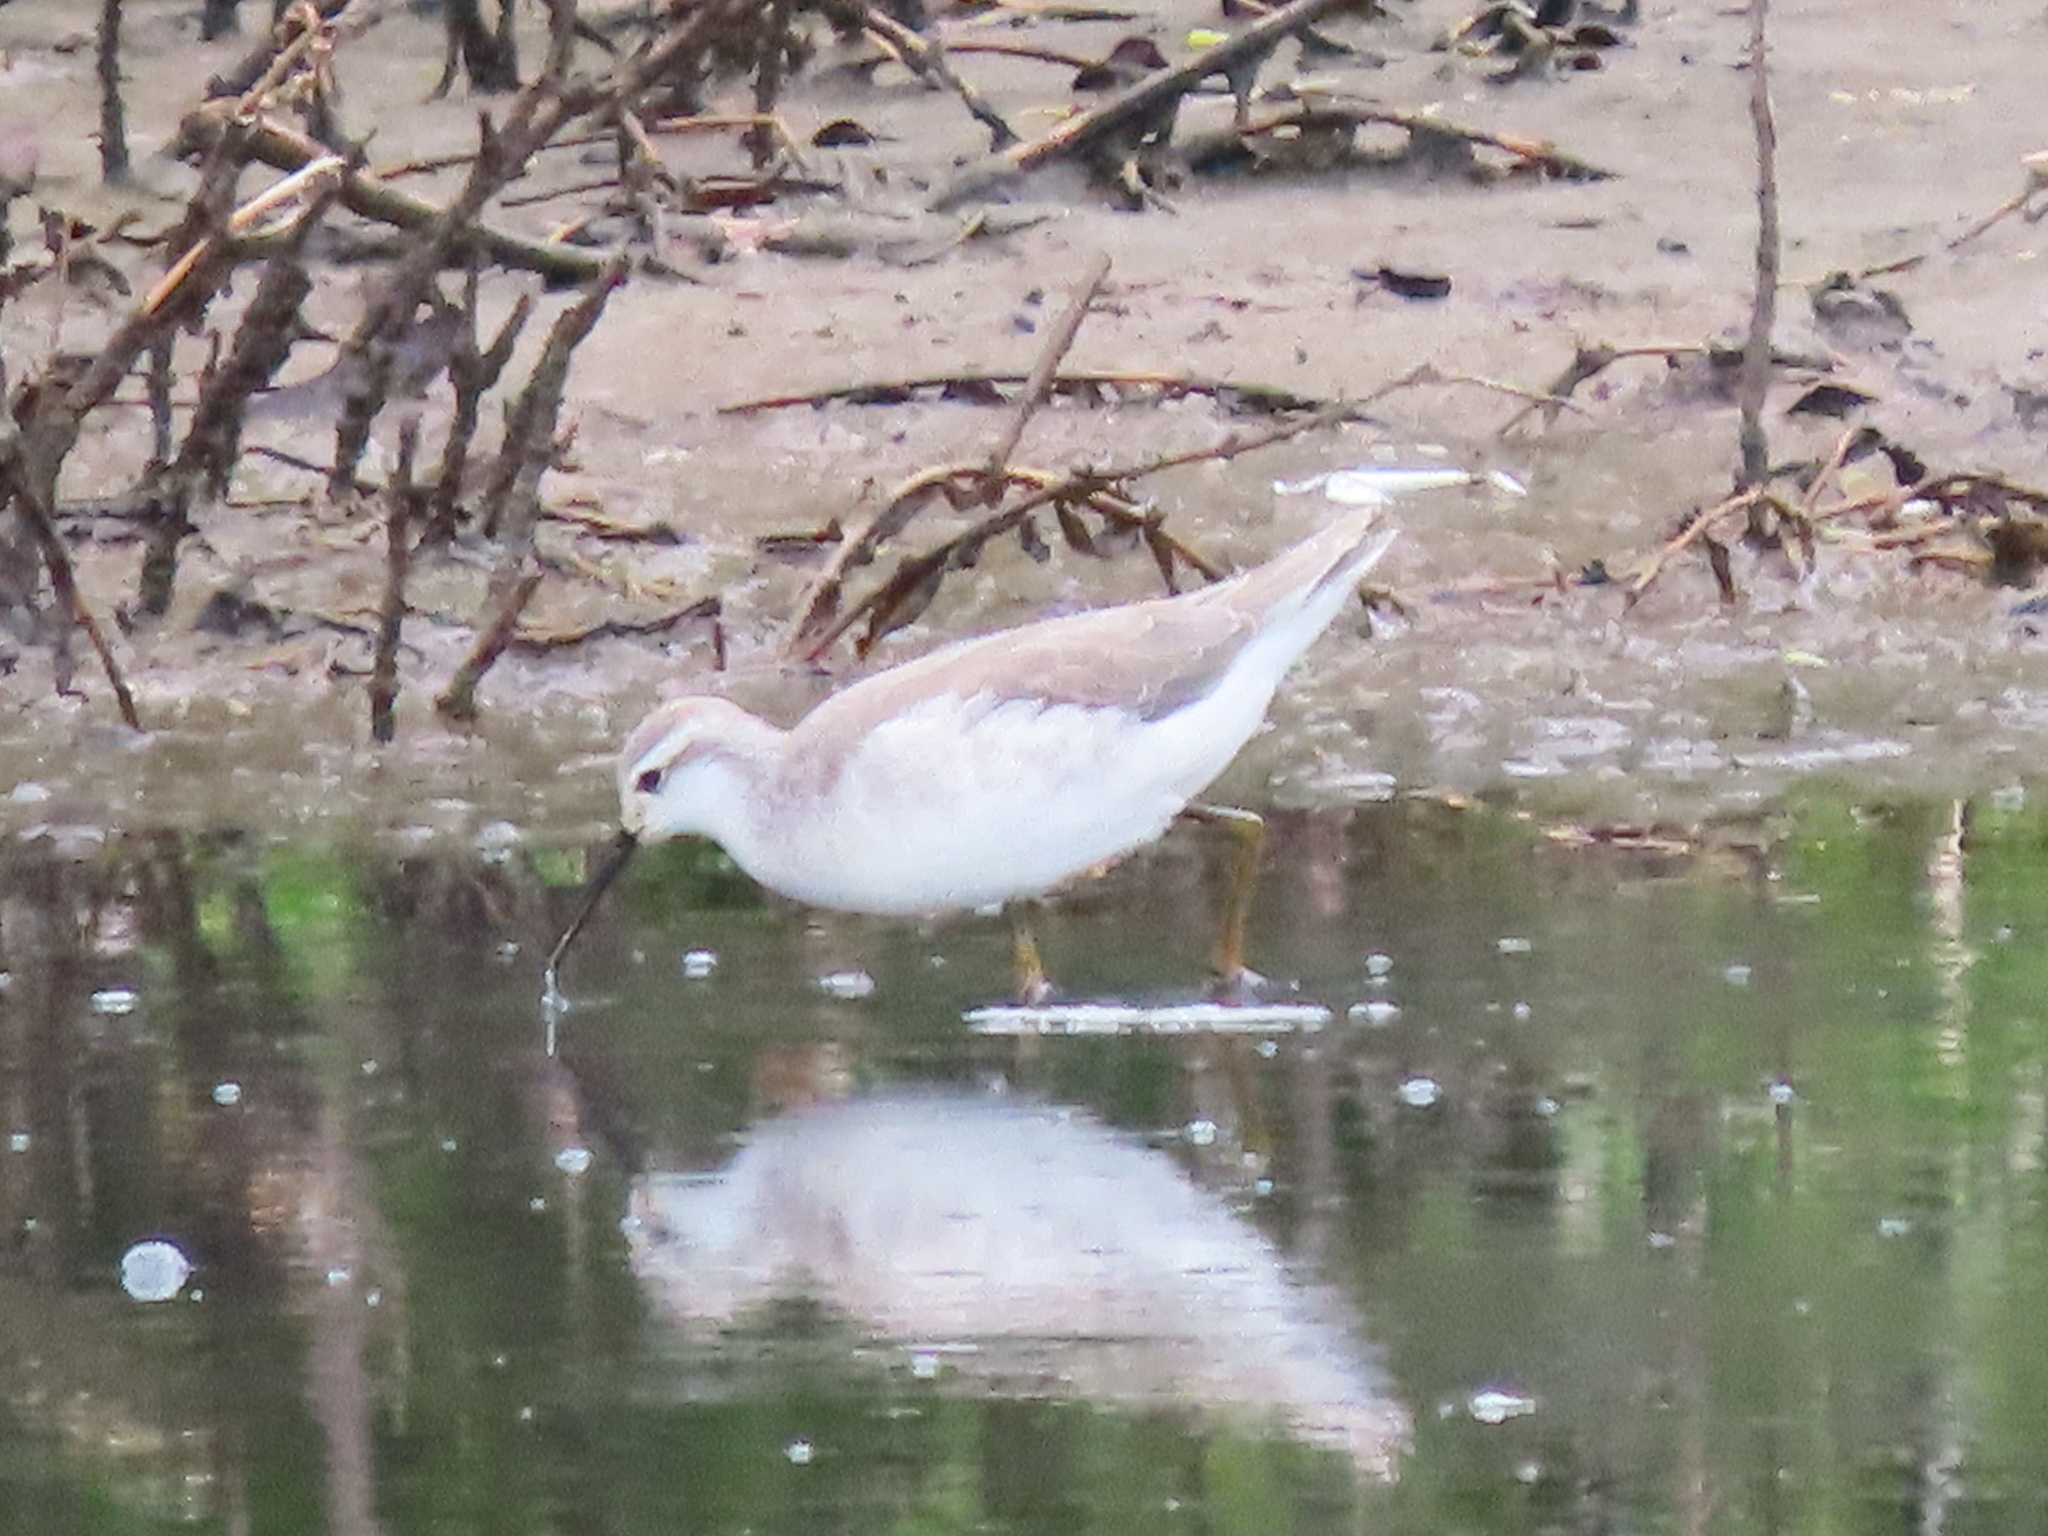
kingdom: Animalia
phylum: Chordata
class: Aves
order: Charadriiformes
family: Scolopacidae
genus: Phalaropus
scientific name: Phalaropus tricolor
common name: Wilson's phalarope
